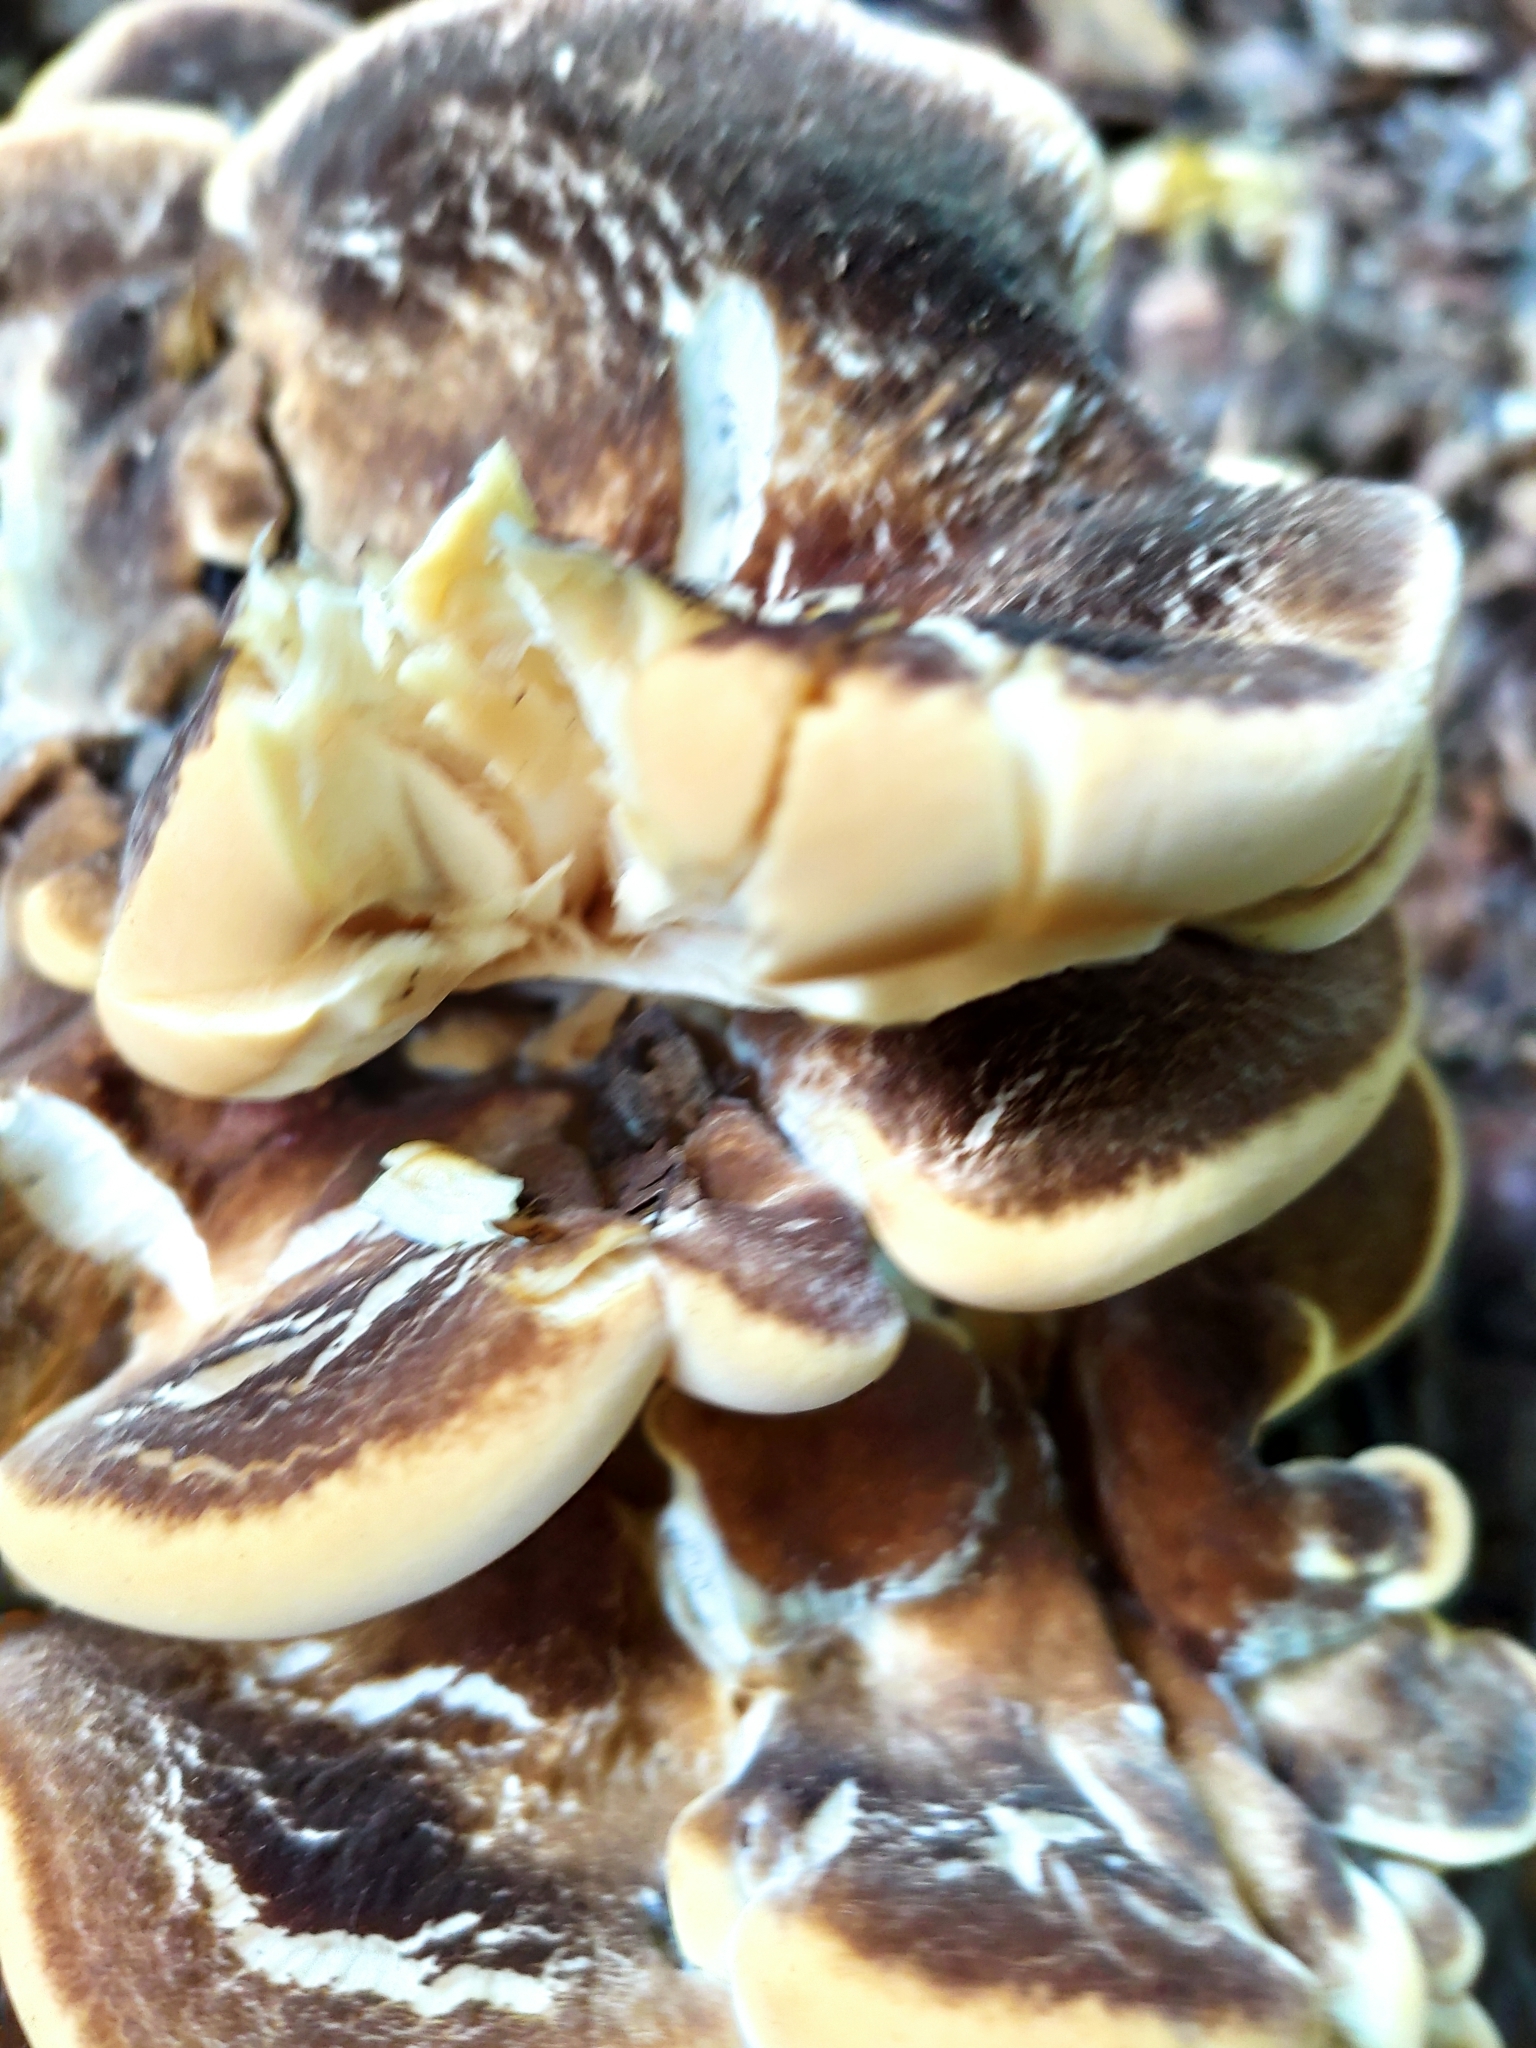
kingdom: Fungi
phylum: Basidiomycota
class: Agaricomycetes
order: Polyporales
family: Meripilaceae
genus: Meripilus
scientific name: Meripilus giganteus
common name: Giant polypore
